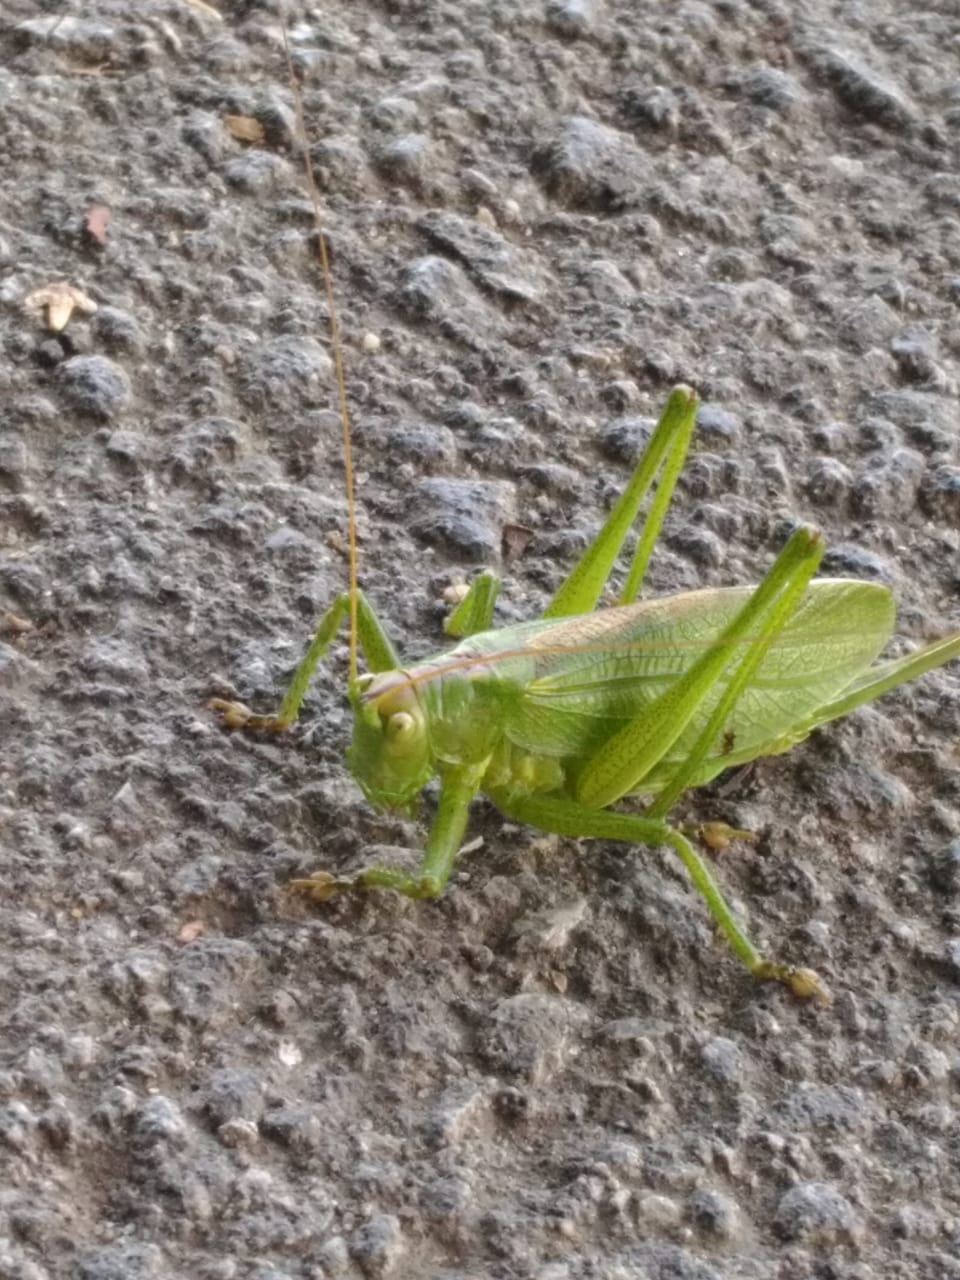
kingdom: Animalia
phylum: Arthropoda
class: Insecta
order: Orthoptera
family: Tettigoniidae
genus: Tettigonia
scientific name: Tettigonia cantans
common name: Upland green bush-cricket
